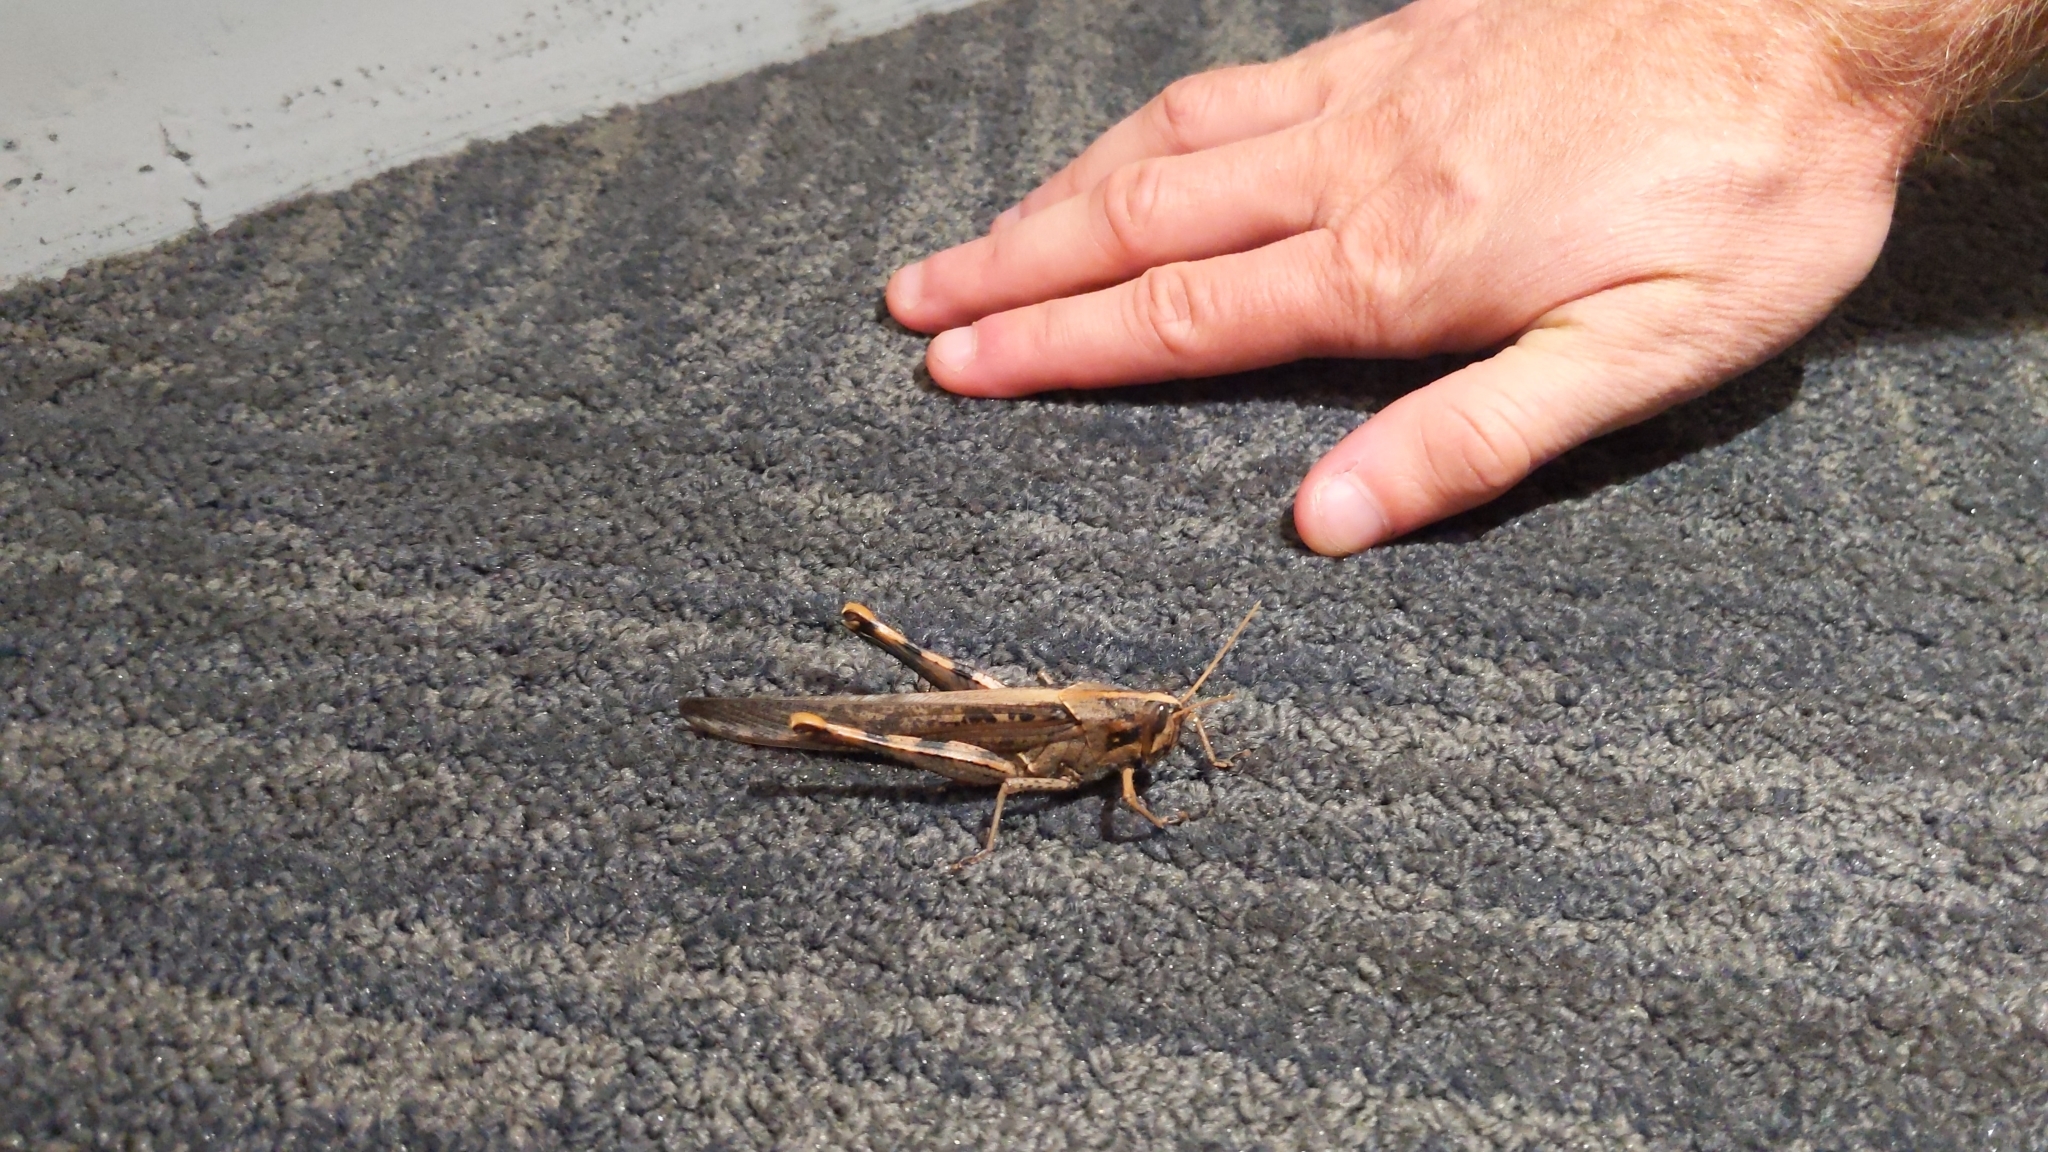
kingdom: Animalia
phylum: Arthropoda
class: Insecta
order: Orthoptera
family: Acrididae
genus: Schistocerca
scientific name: Schistocerca nitens
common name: Vagrant grasshopper
